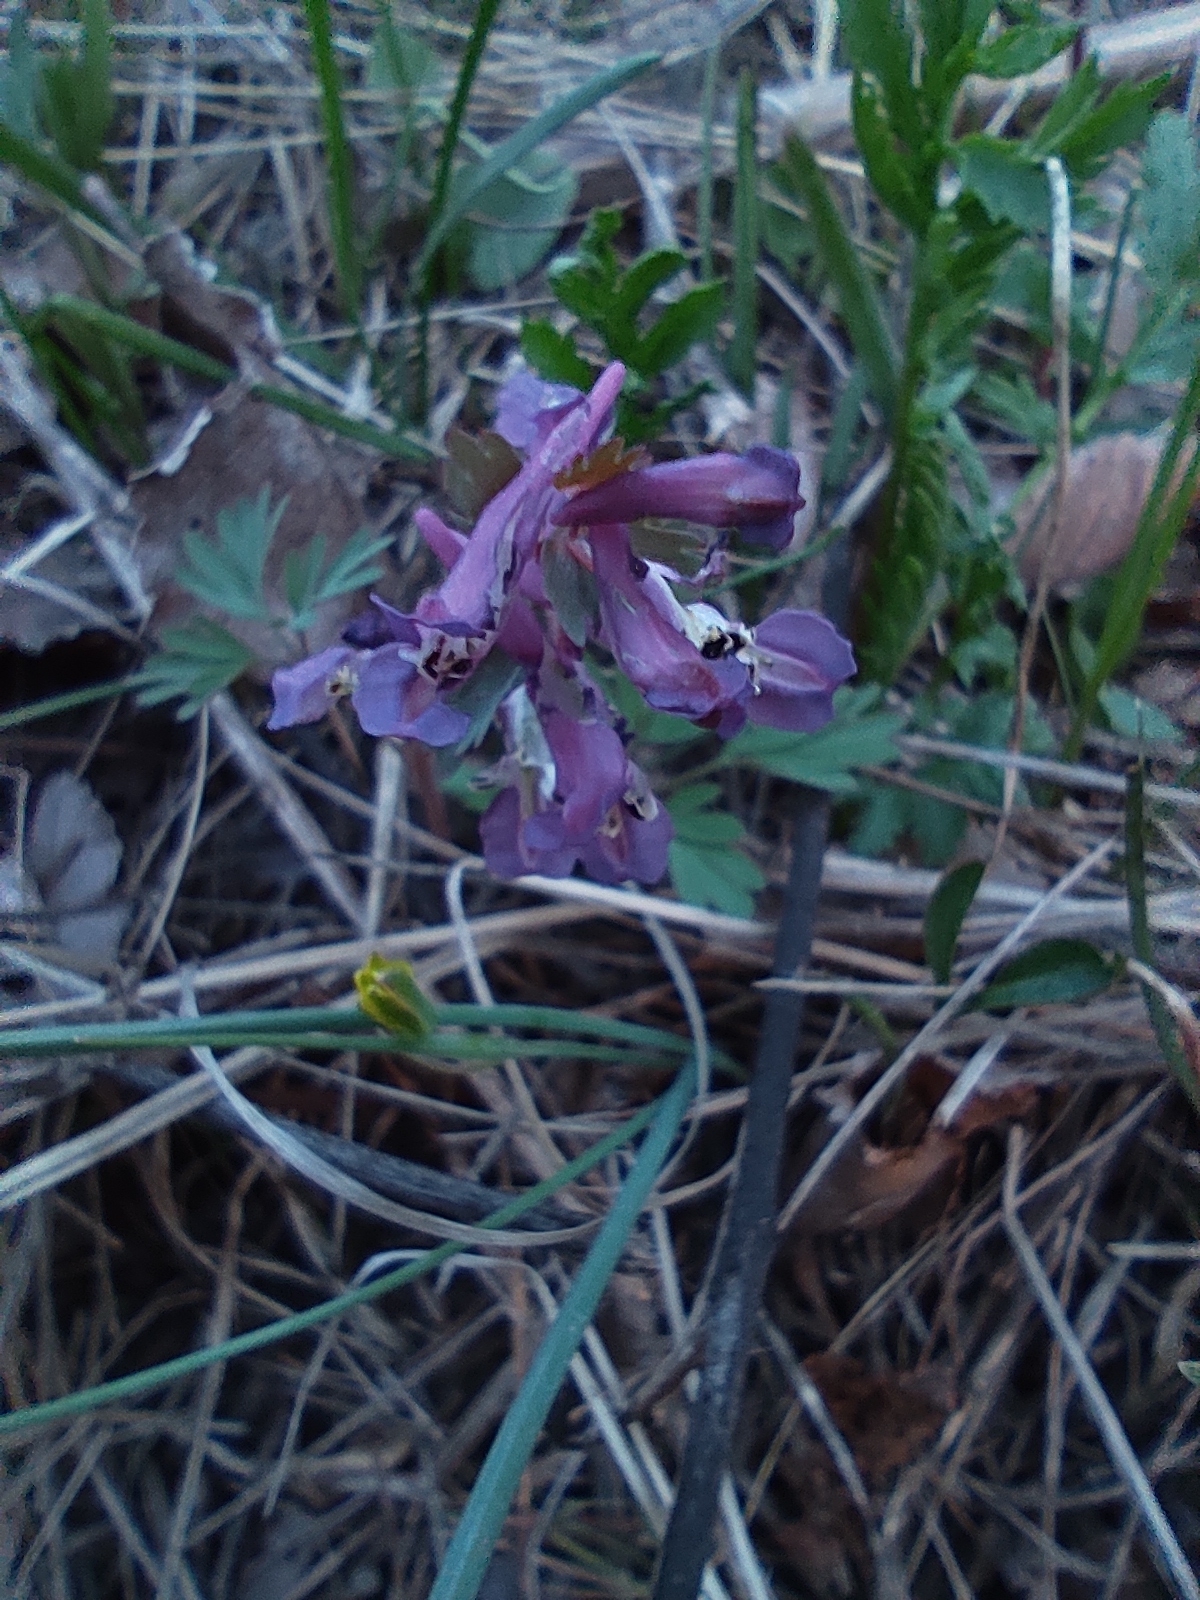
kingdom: Plantae
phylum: Tracheophyta
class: Magnoliopsida
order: Ranunculales
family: Papaveraceae
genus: Corydalis
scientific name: Corydalis solida
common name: Bird-in-a-bush
